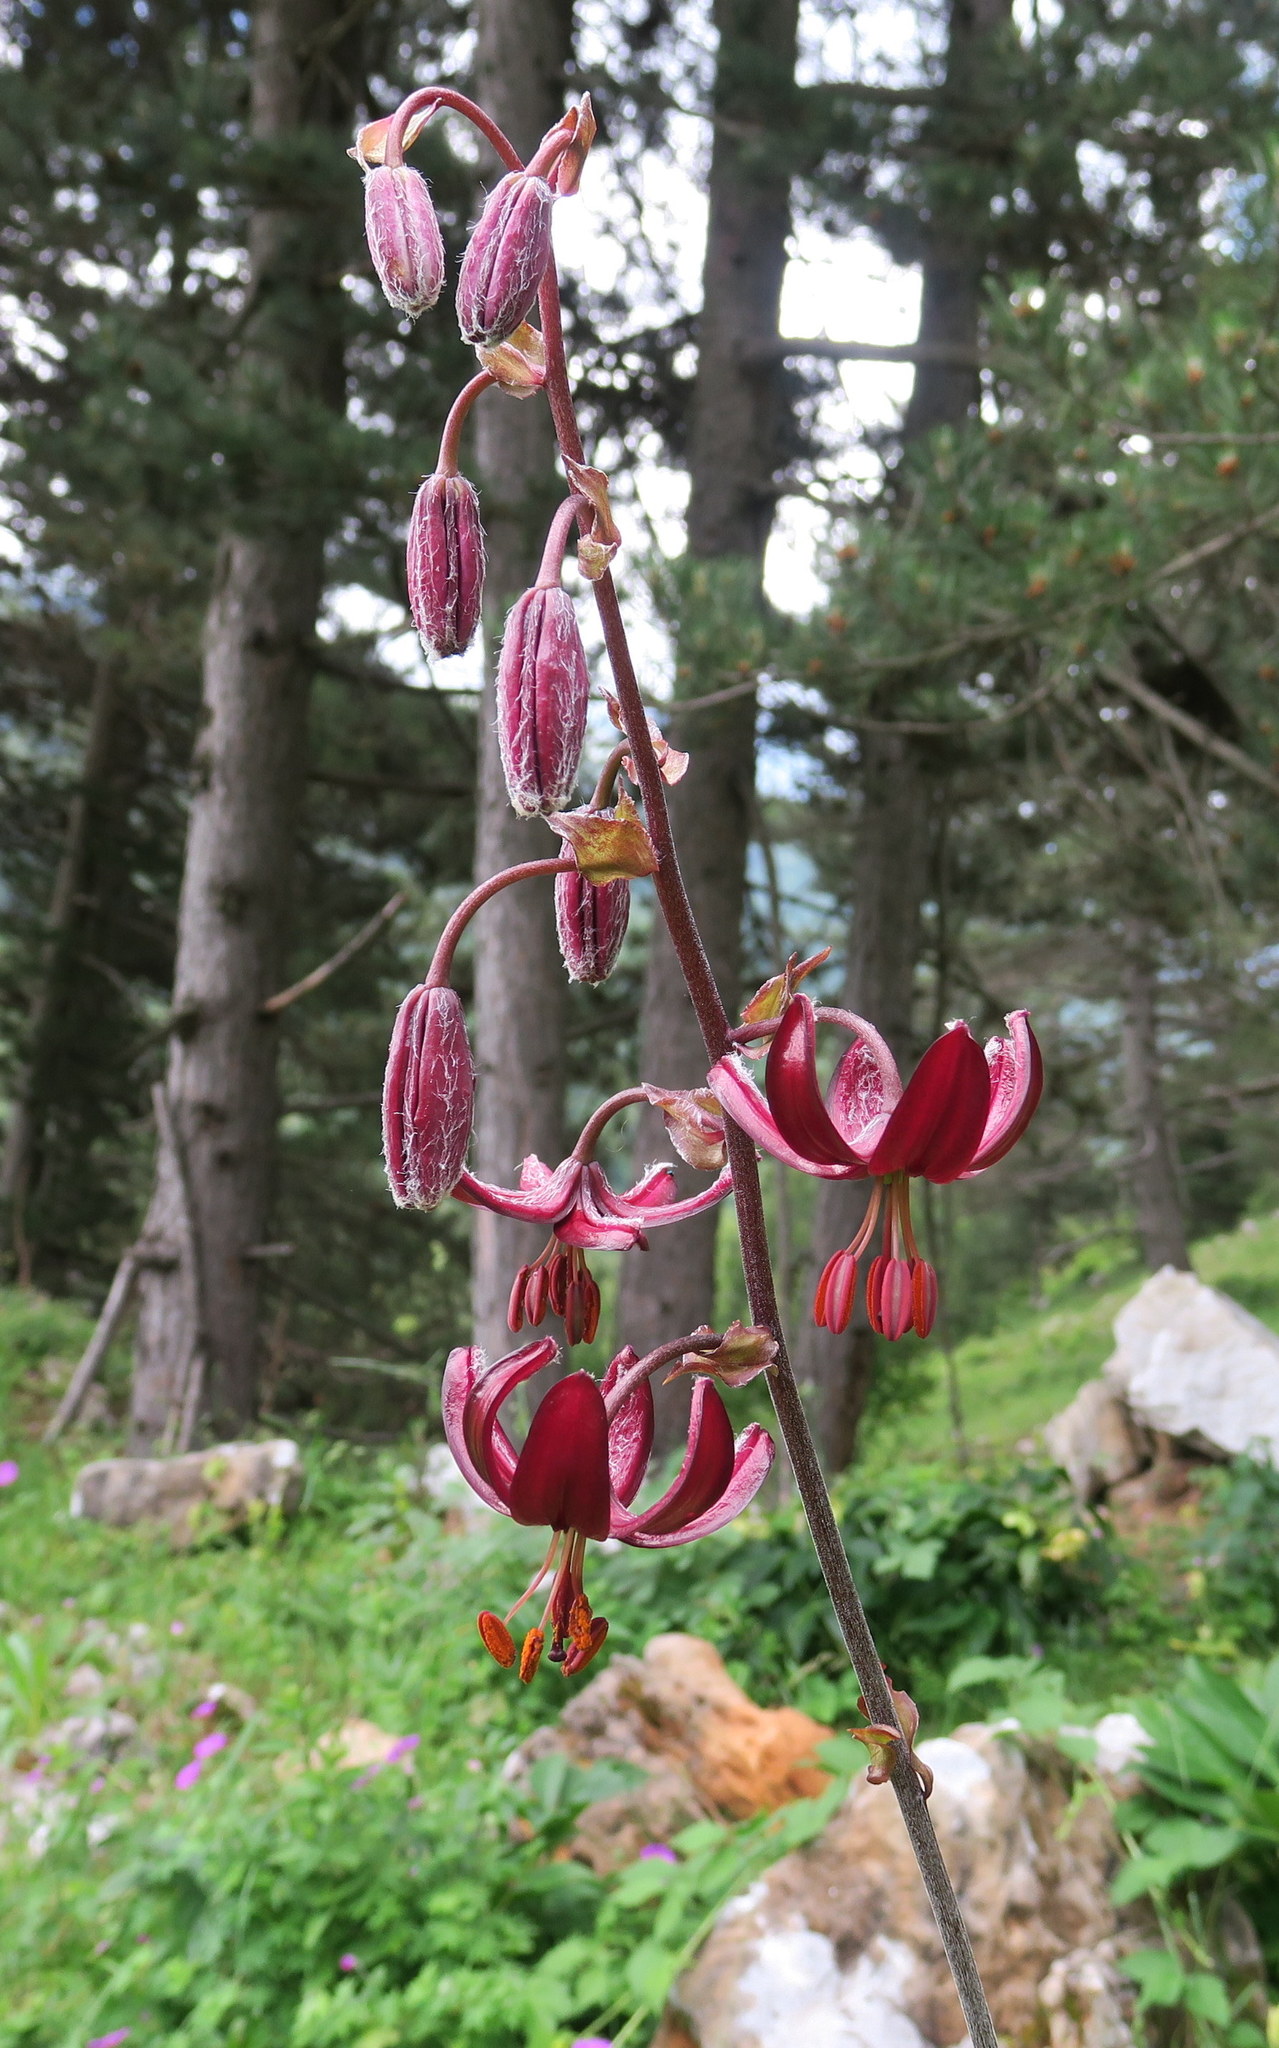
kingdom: Plantae
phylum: Tracheophyta
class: Liliopsida
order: Liliales
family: Liliaceae
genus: Lilium
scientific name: Lilium martagon
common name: Martagon lily
